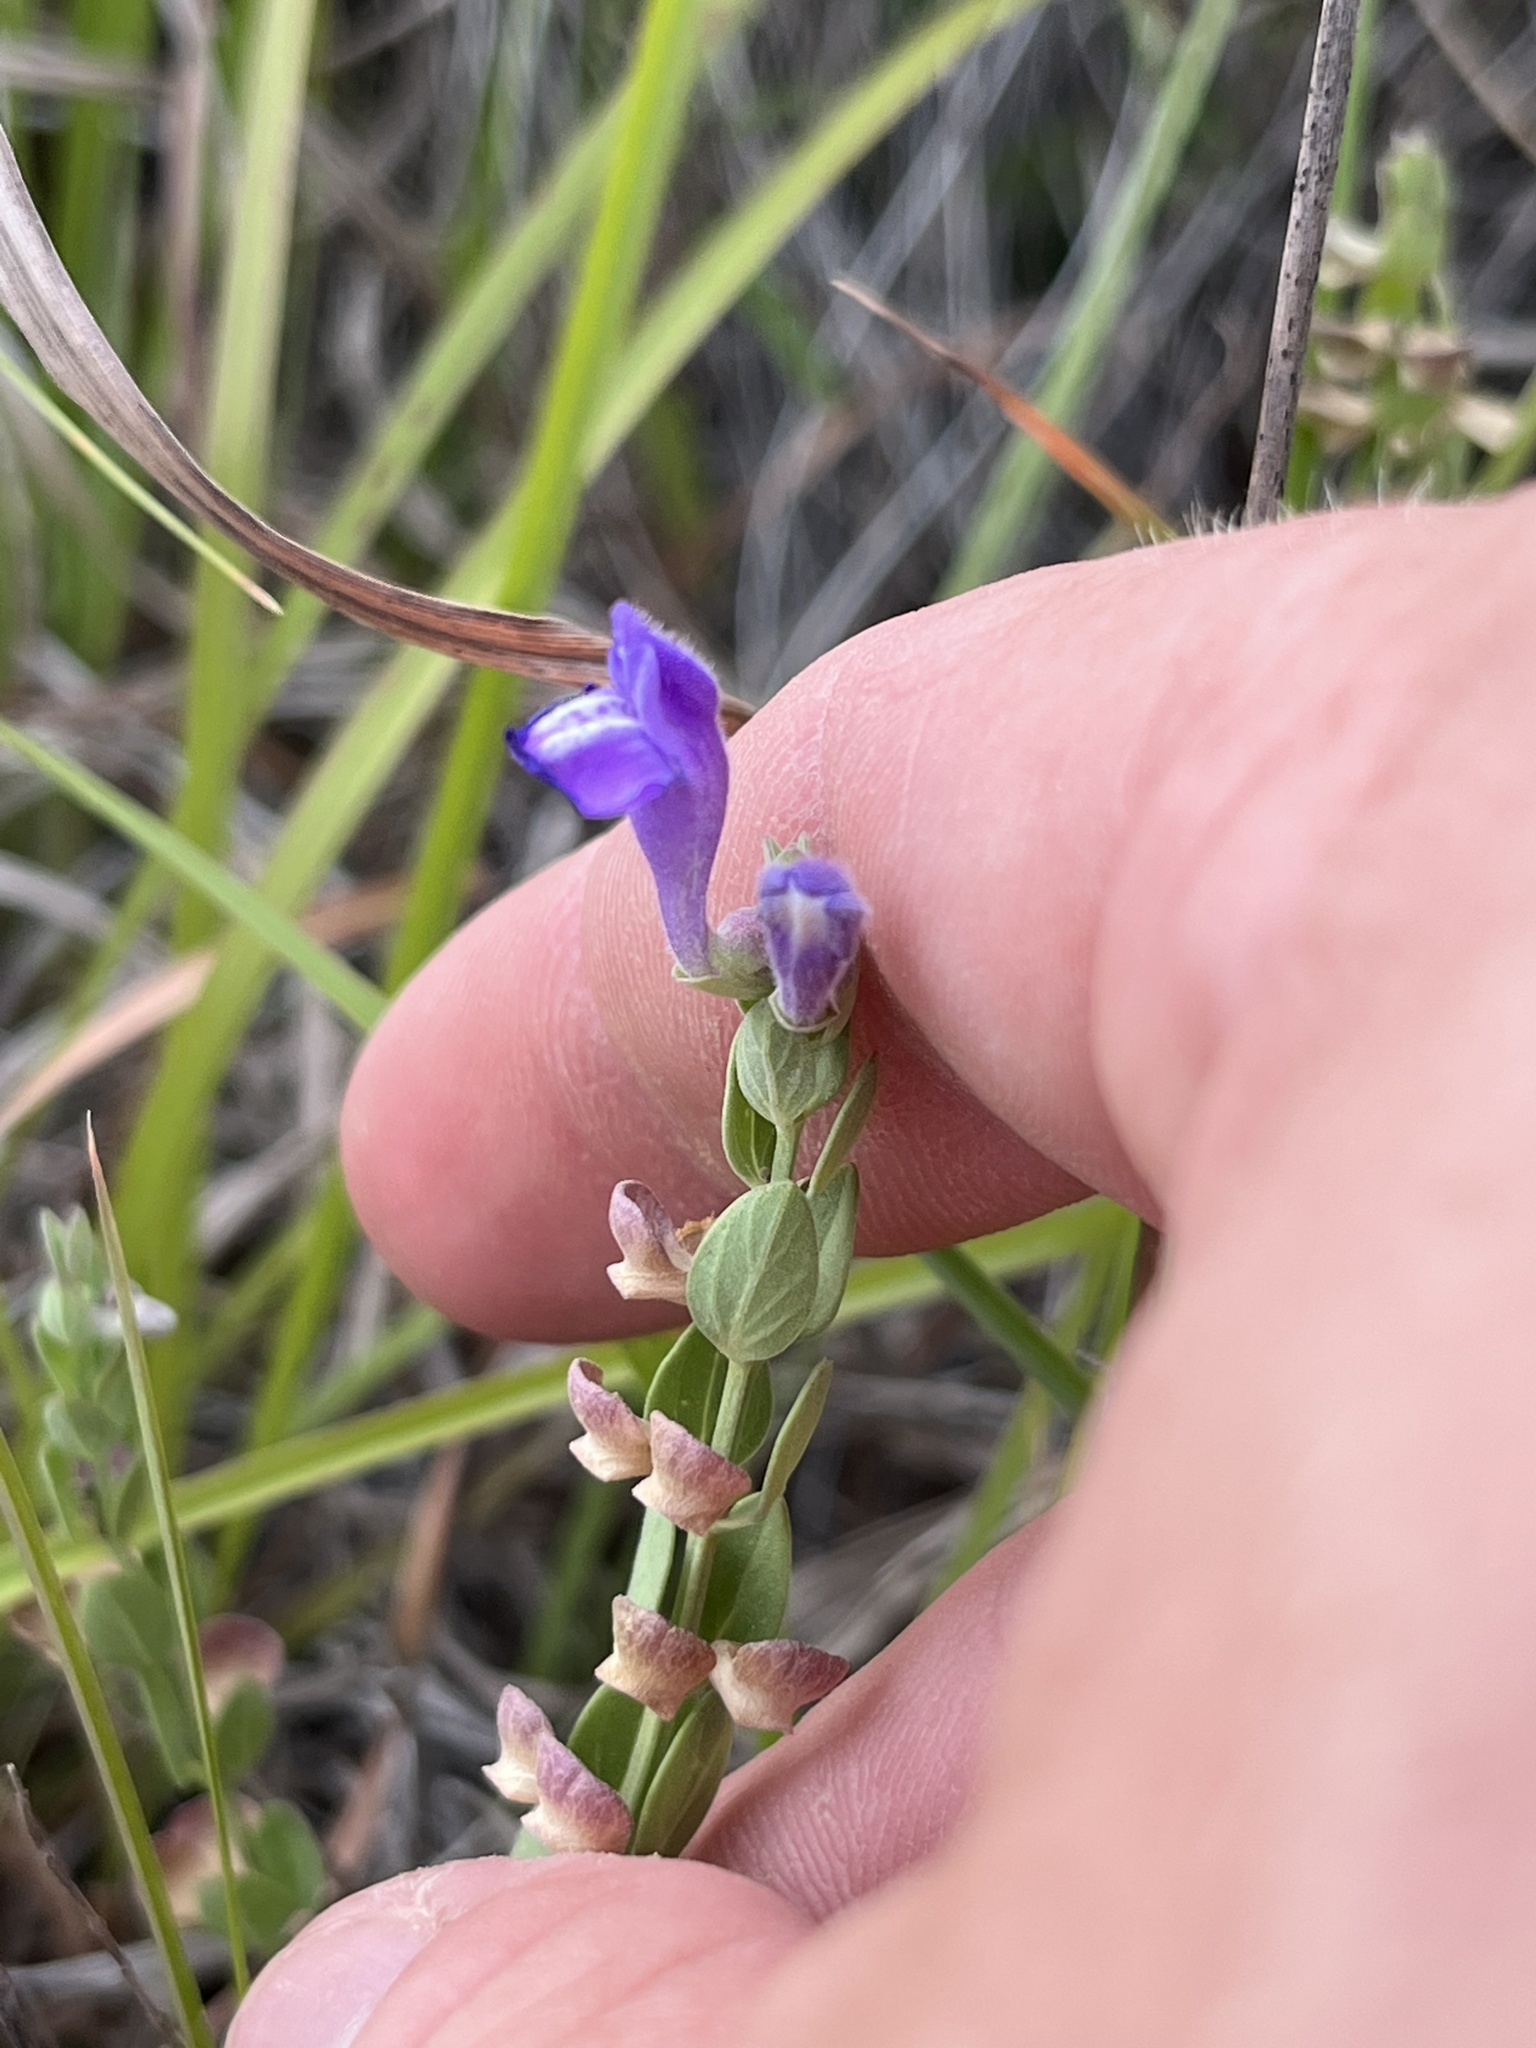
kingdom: Plantae
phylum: Tracheophyta
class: Magnoliopsida
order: Lamiales
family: Lamiaceae
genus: Scutellaria
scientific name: Scutellaria wrightii
